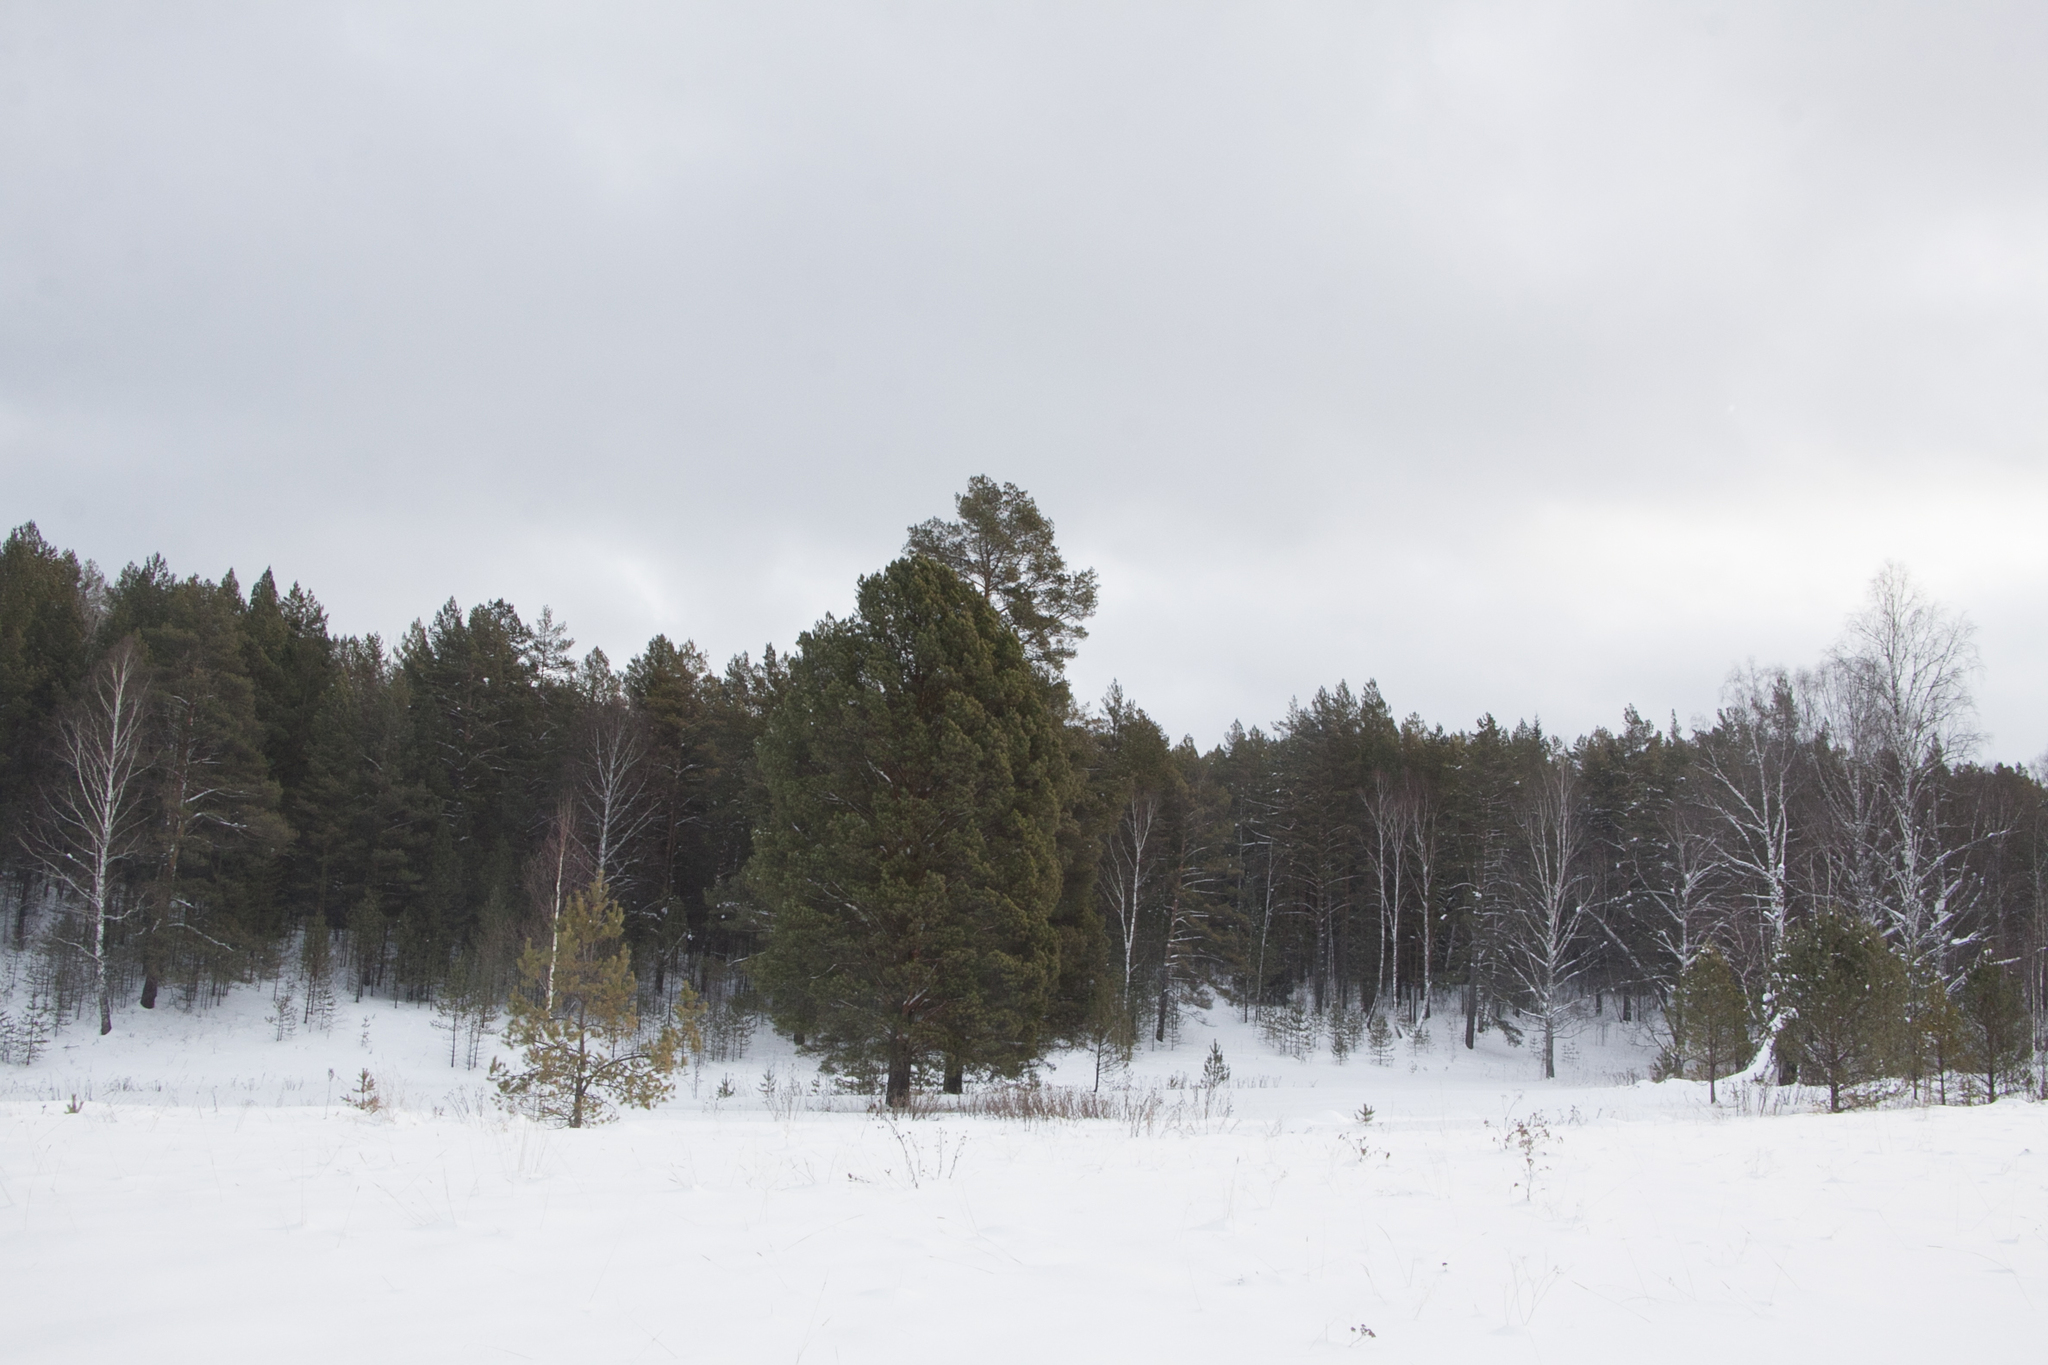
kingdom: Plantae
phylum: Tracheophyta
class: Magnoliopsida
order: Fagales
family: Betulaceae
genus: Betula
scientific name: Betula pendula
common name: Silver birch
